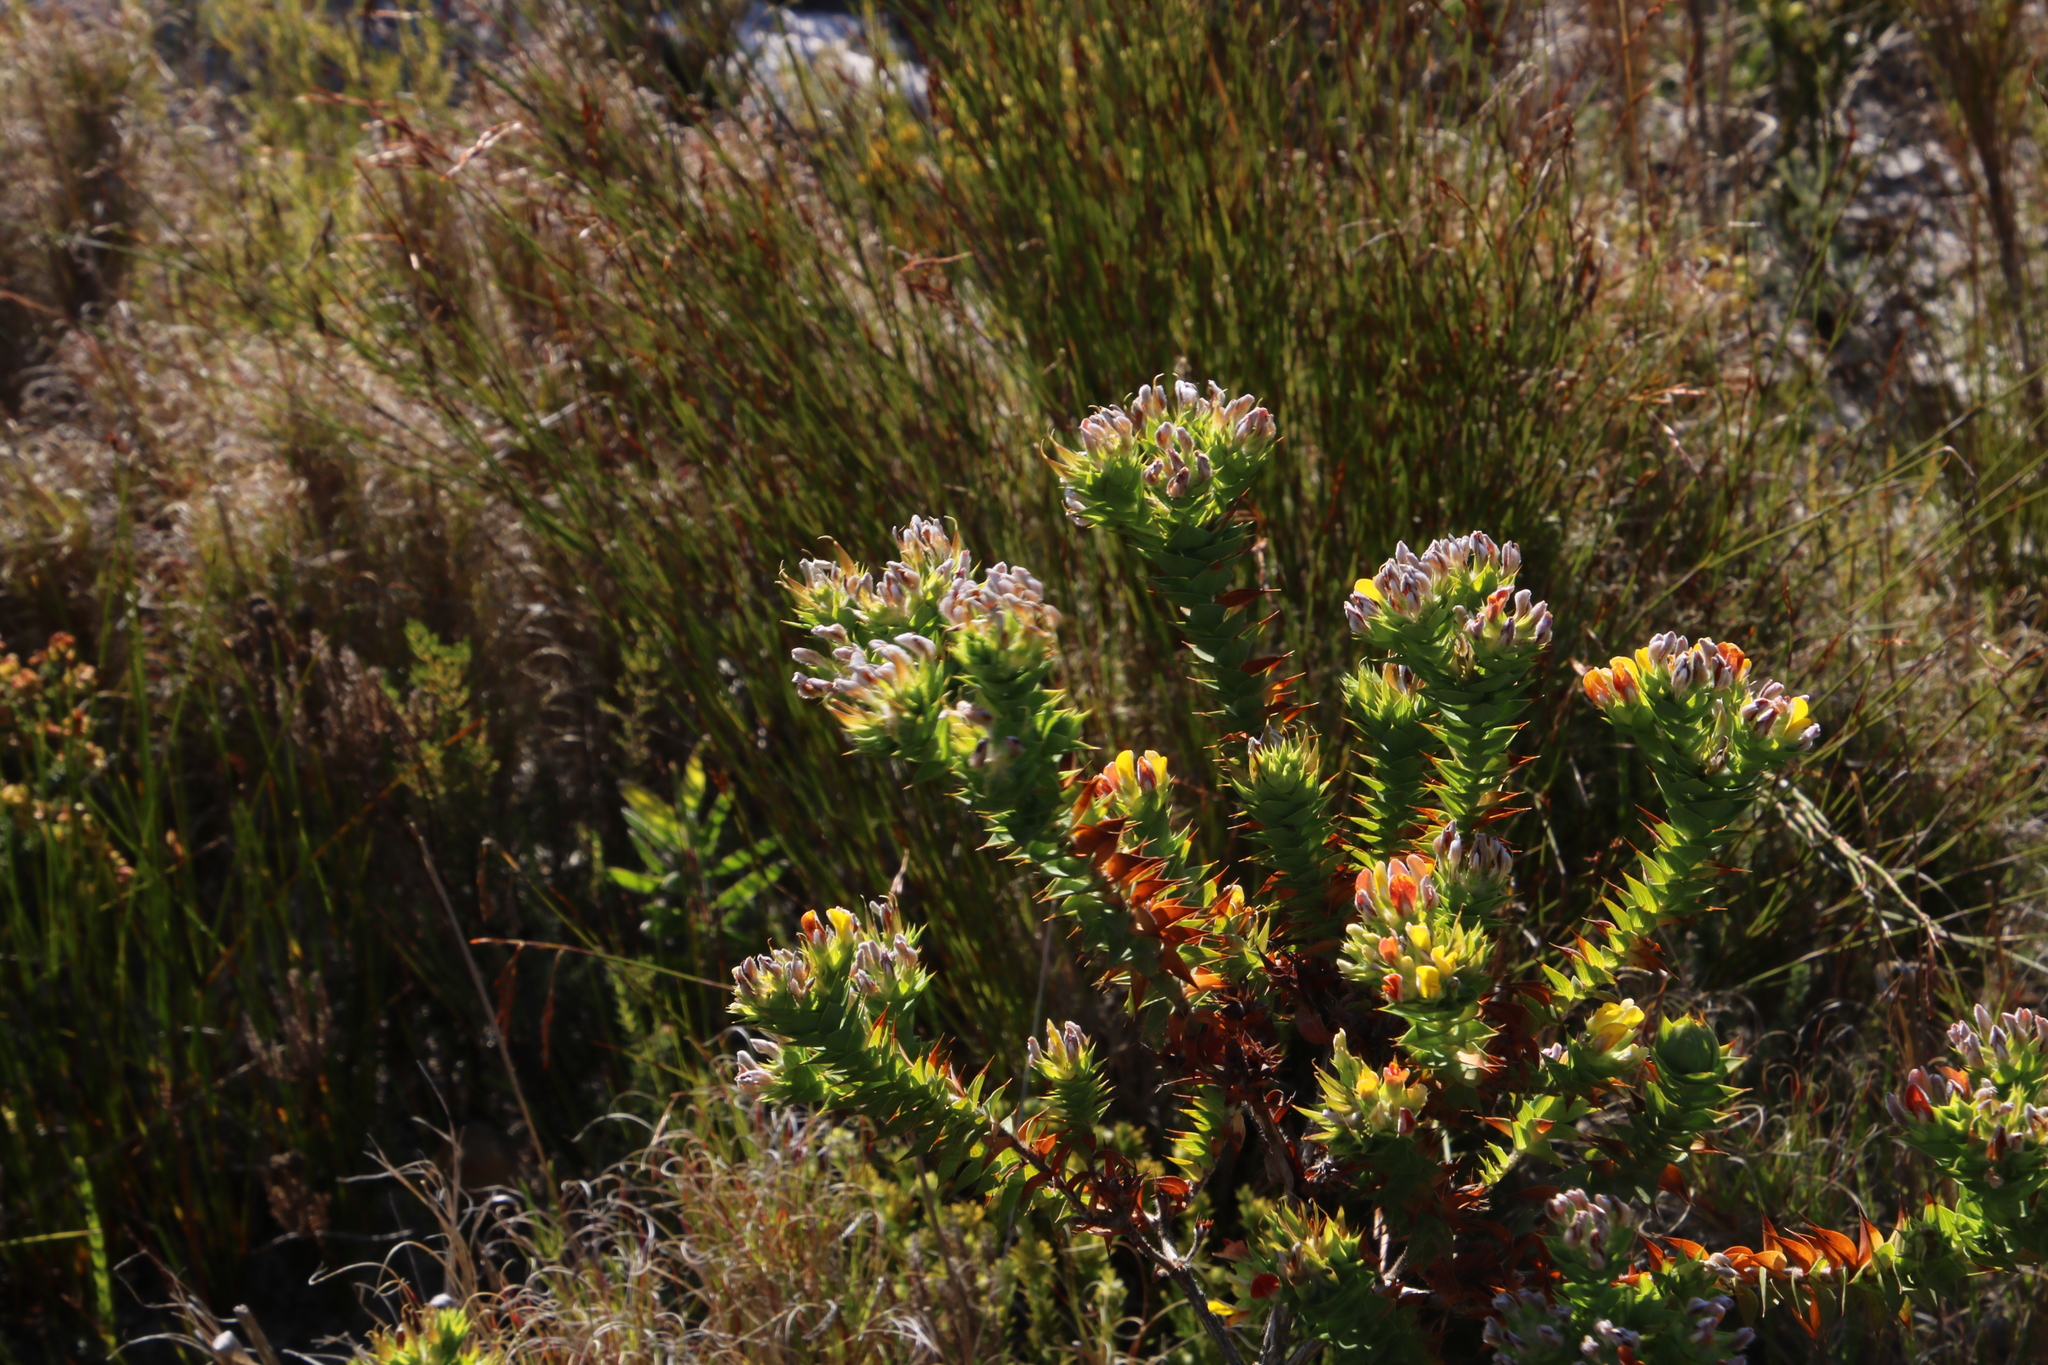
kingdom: Plantae
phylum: Tracheophyta
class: Magnoliopsida
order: Fabales
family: Fabaceae
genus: Aspalathus
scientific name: Aspalathus cordata
